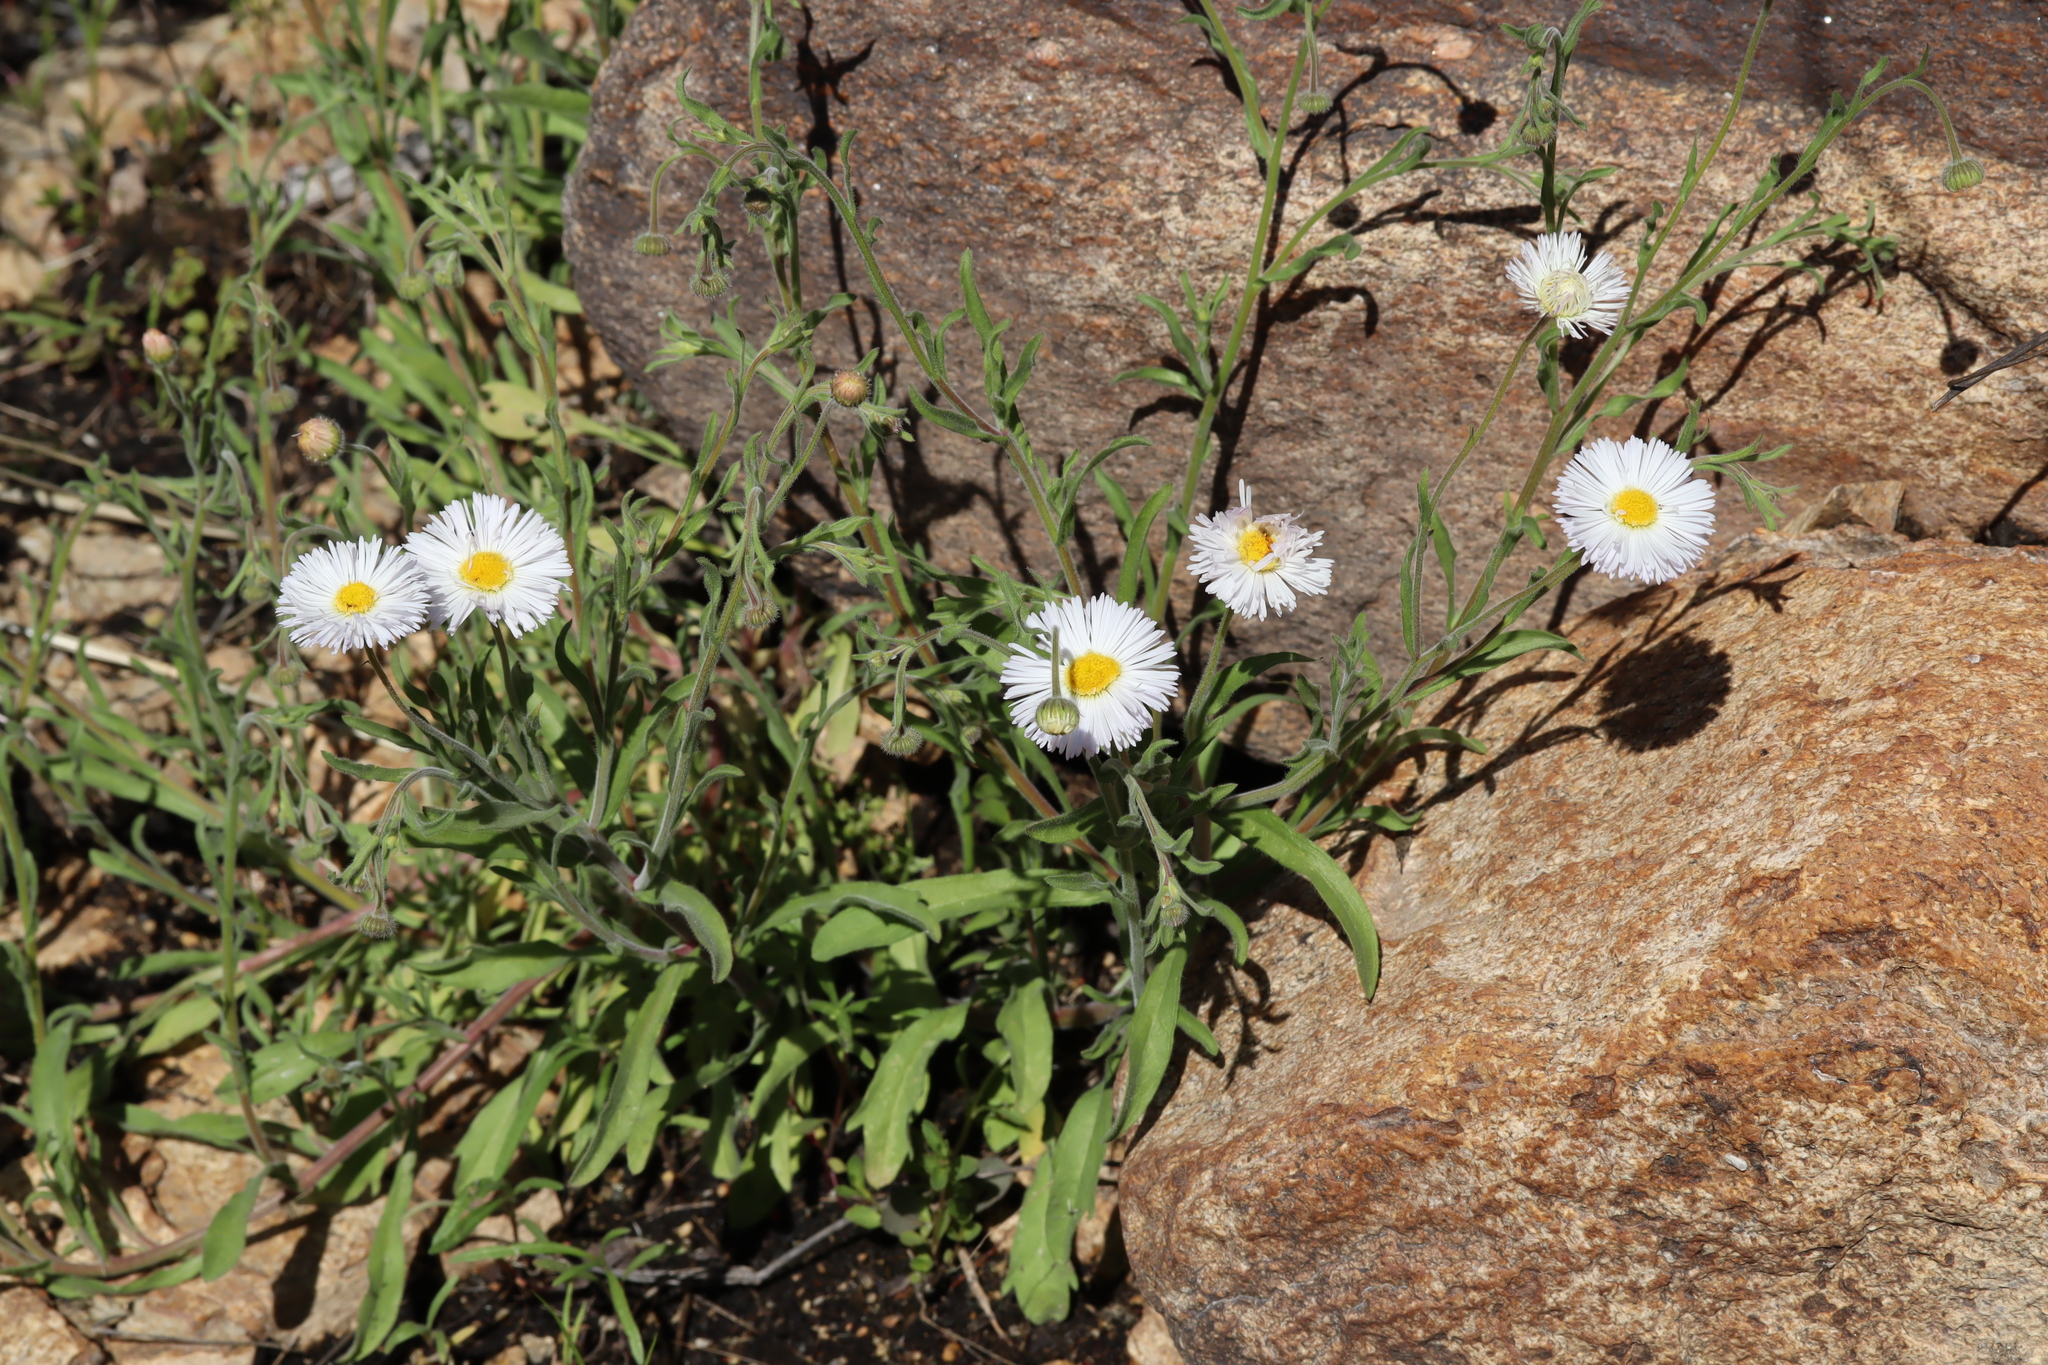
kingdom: Plantae
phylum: Tracheophyta
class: Magnoliopsida
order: Asterales
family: Asteraceae
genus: Erigeron
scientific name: Erigeron divergens
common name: Diffuse fleabane
